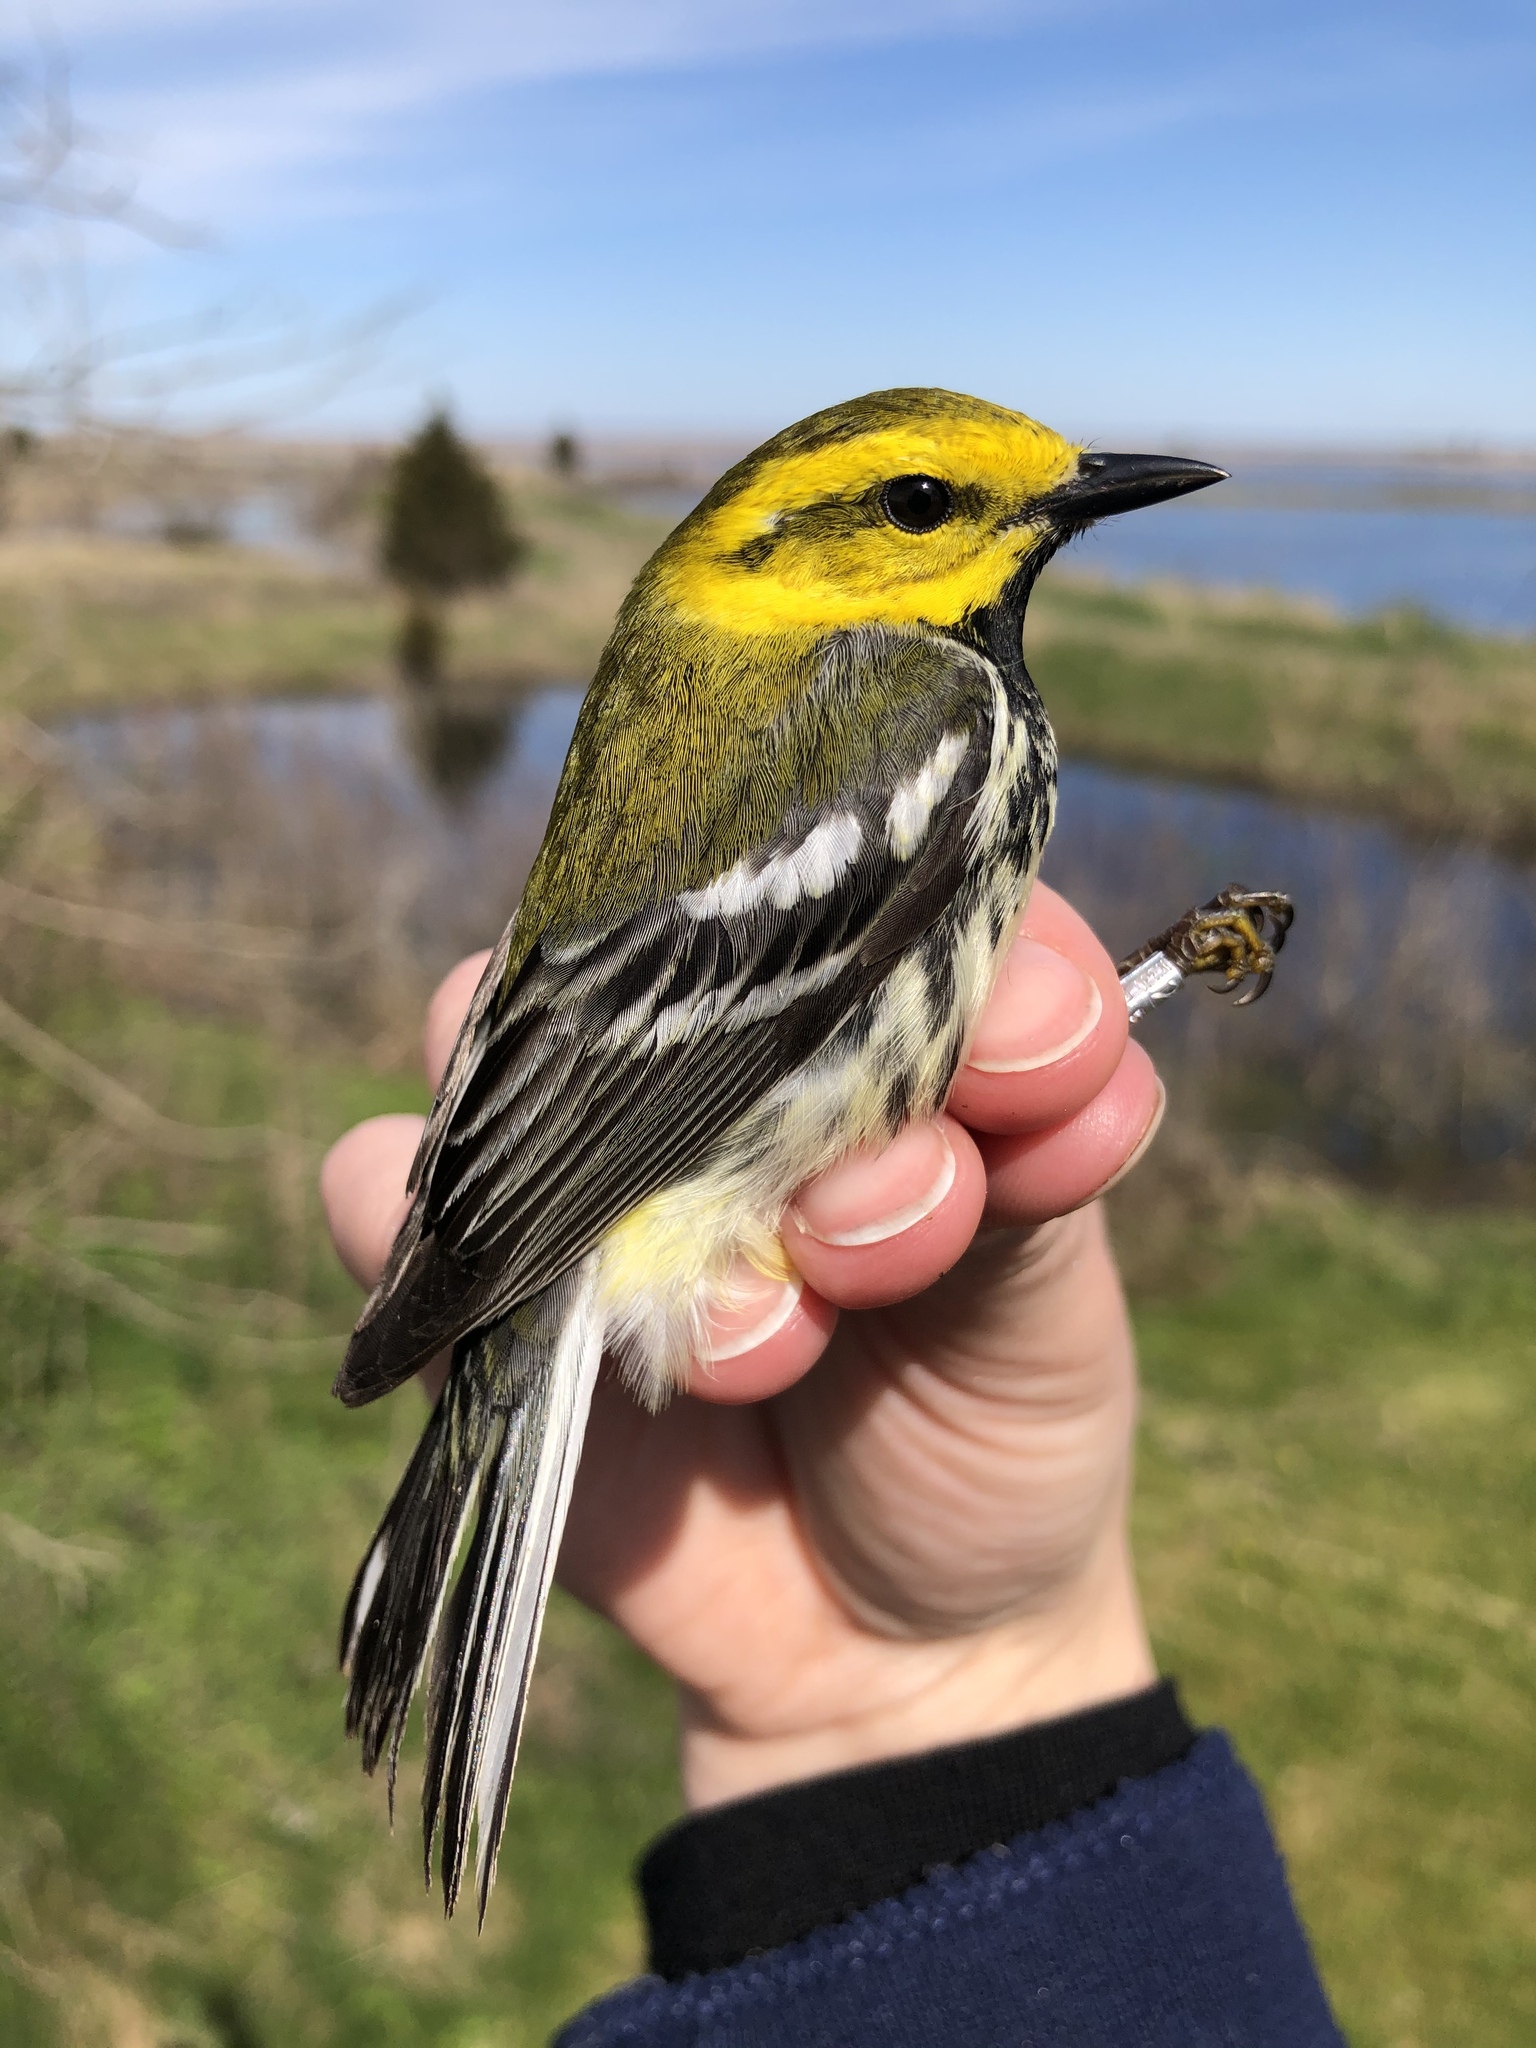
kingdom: Animalia
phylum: Chordata
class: Aves
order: Passeriformes
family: Parulidae
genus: Setophaga
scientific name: Setophaga virens
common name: Black-throated green warbler
